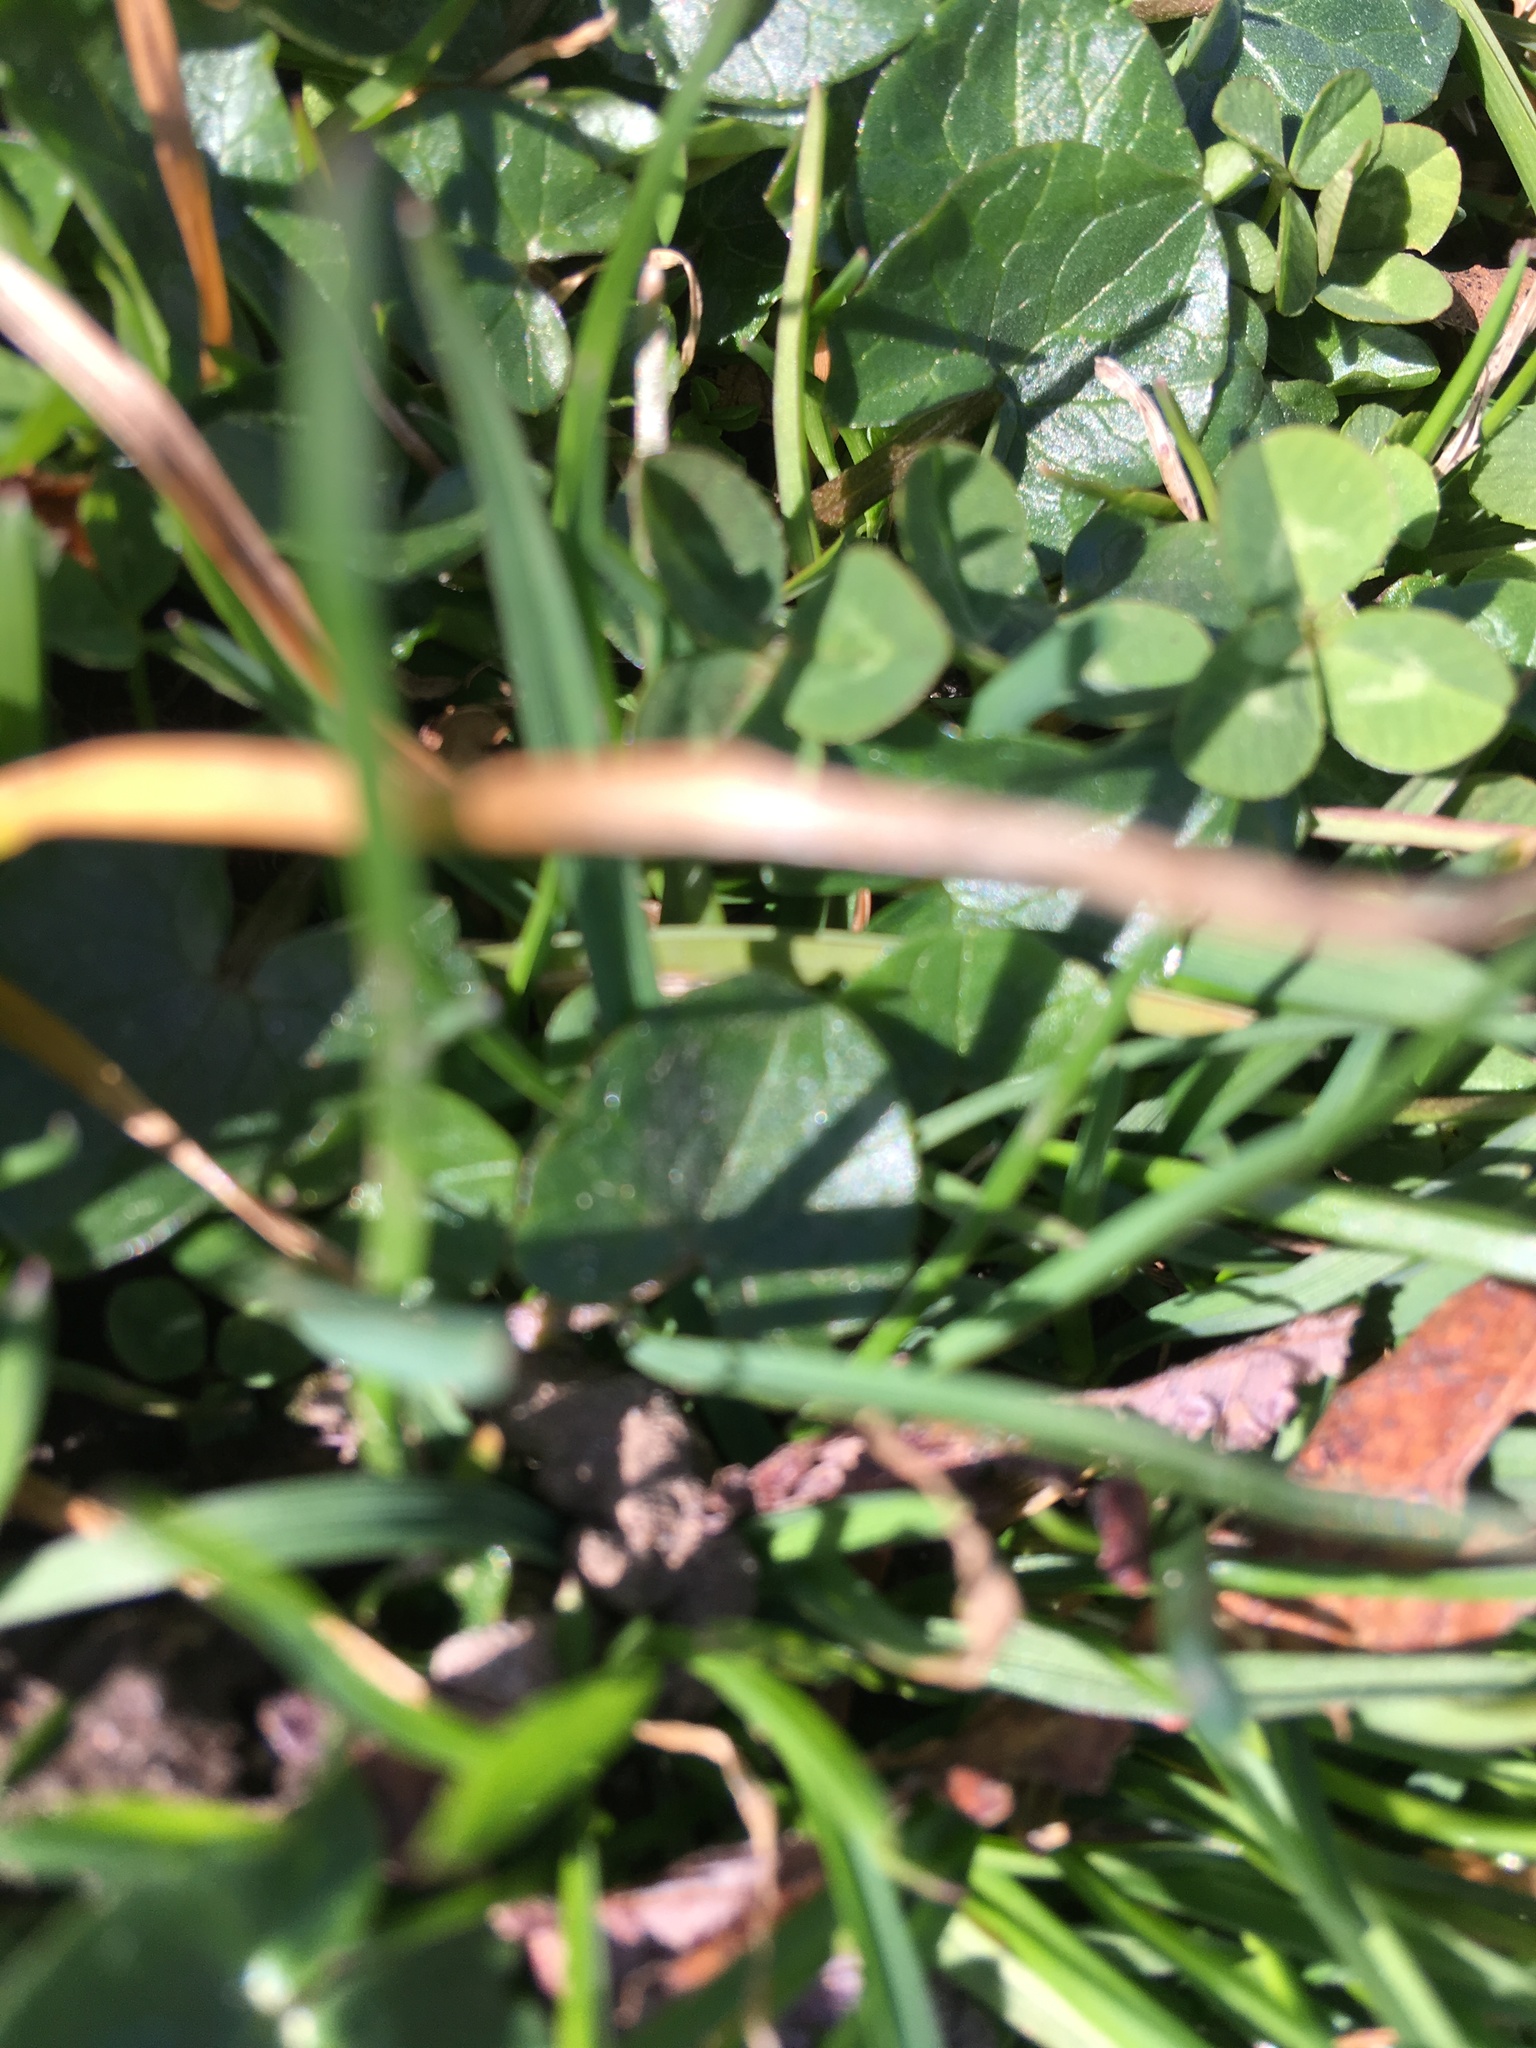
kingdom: Plantae
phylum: Tracheophyta
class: Magnoliopsida
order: Ranunculales
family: Ranunculaceae
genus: Ficaria
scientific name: Ficaria verna
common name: Lesser celandine
